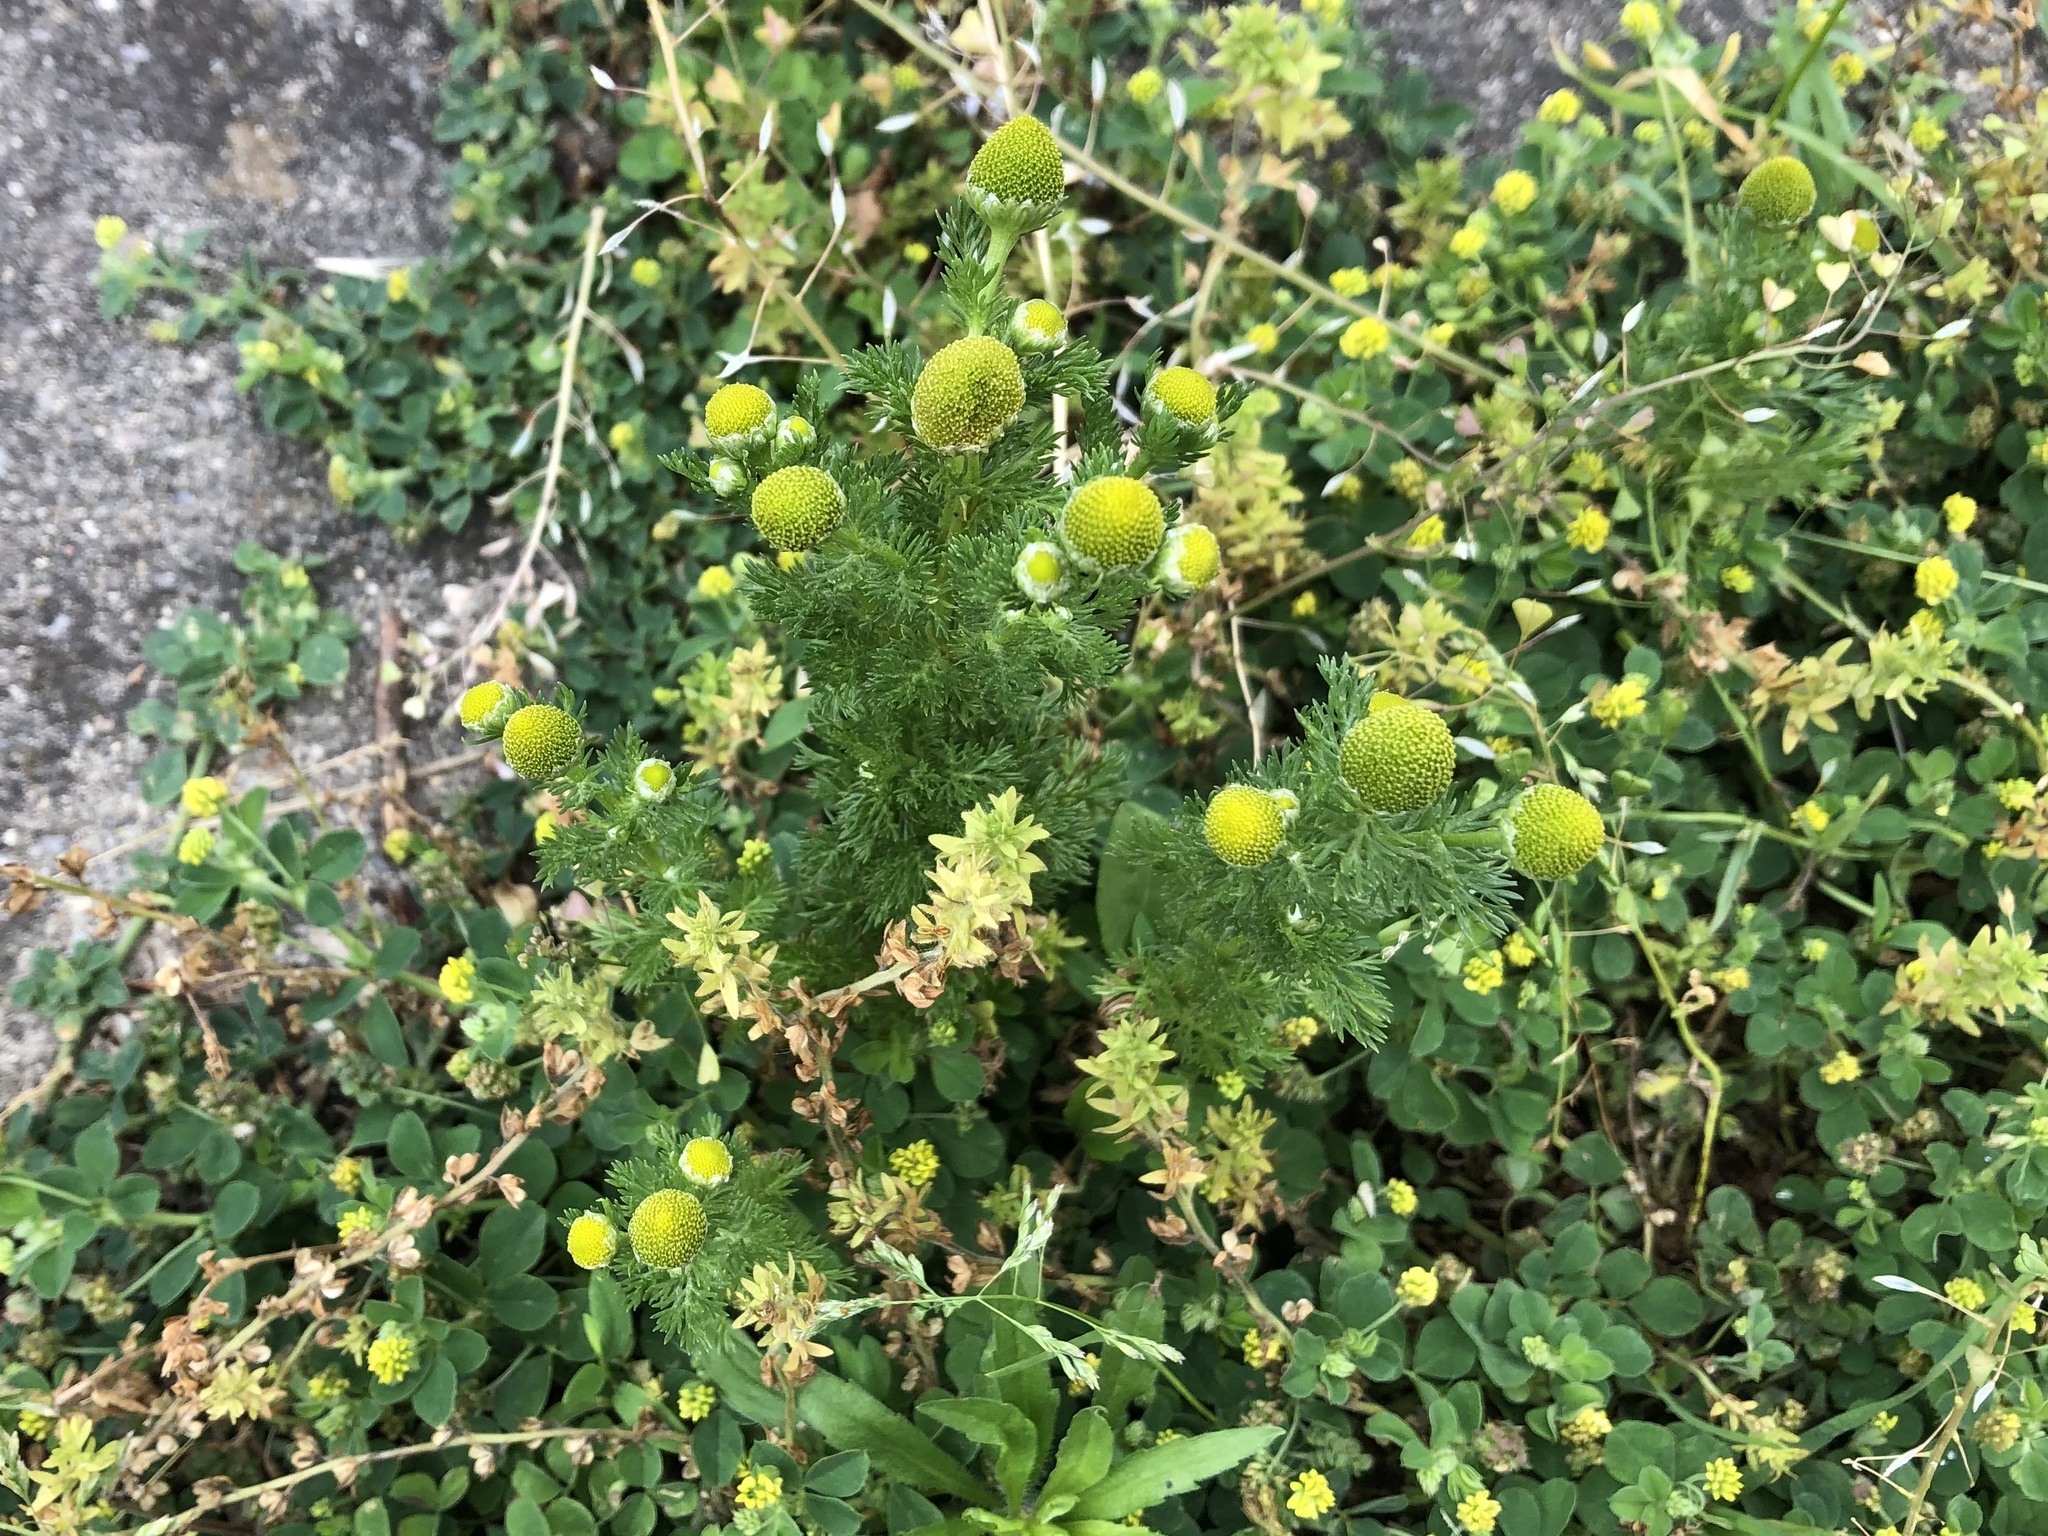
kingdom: Plantae
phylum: Tracheophyta
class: Magnoliopsida
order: Asterales
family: Asteraceae
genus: Matricaria
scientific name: Matricaria discoidea
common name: Disc mayweed
